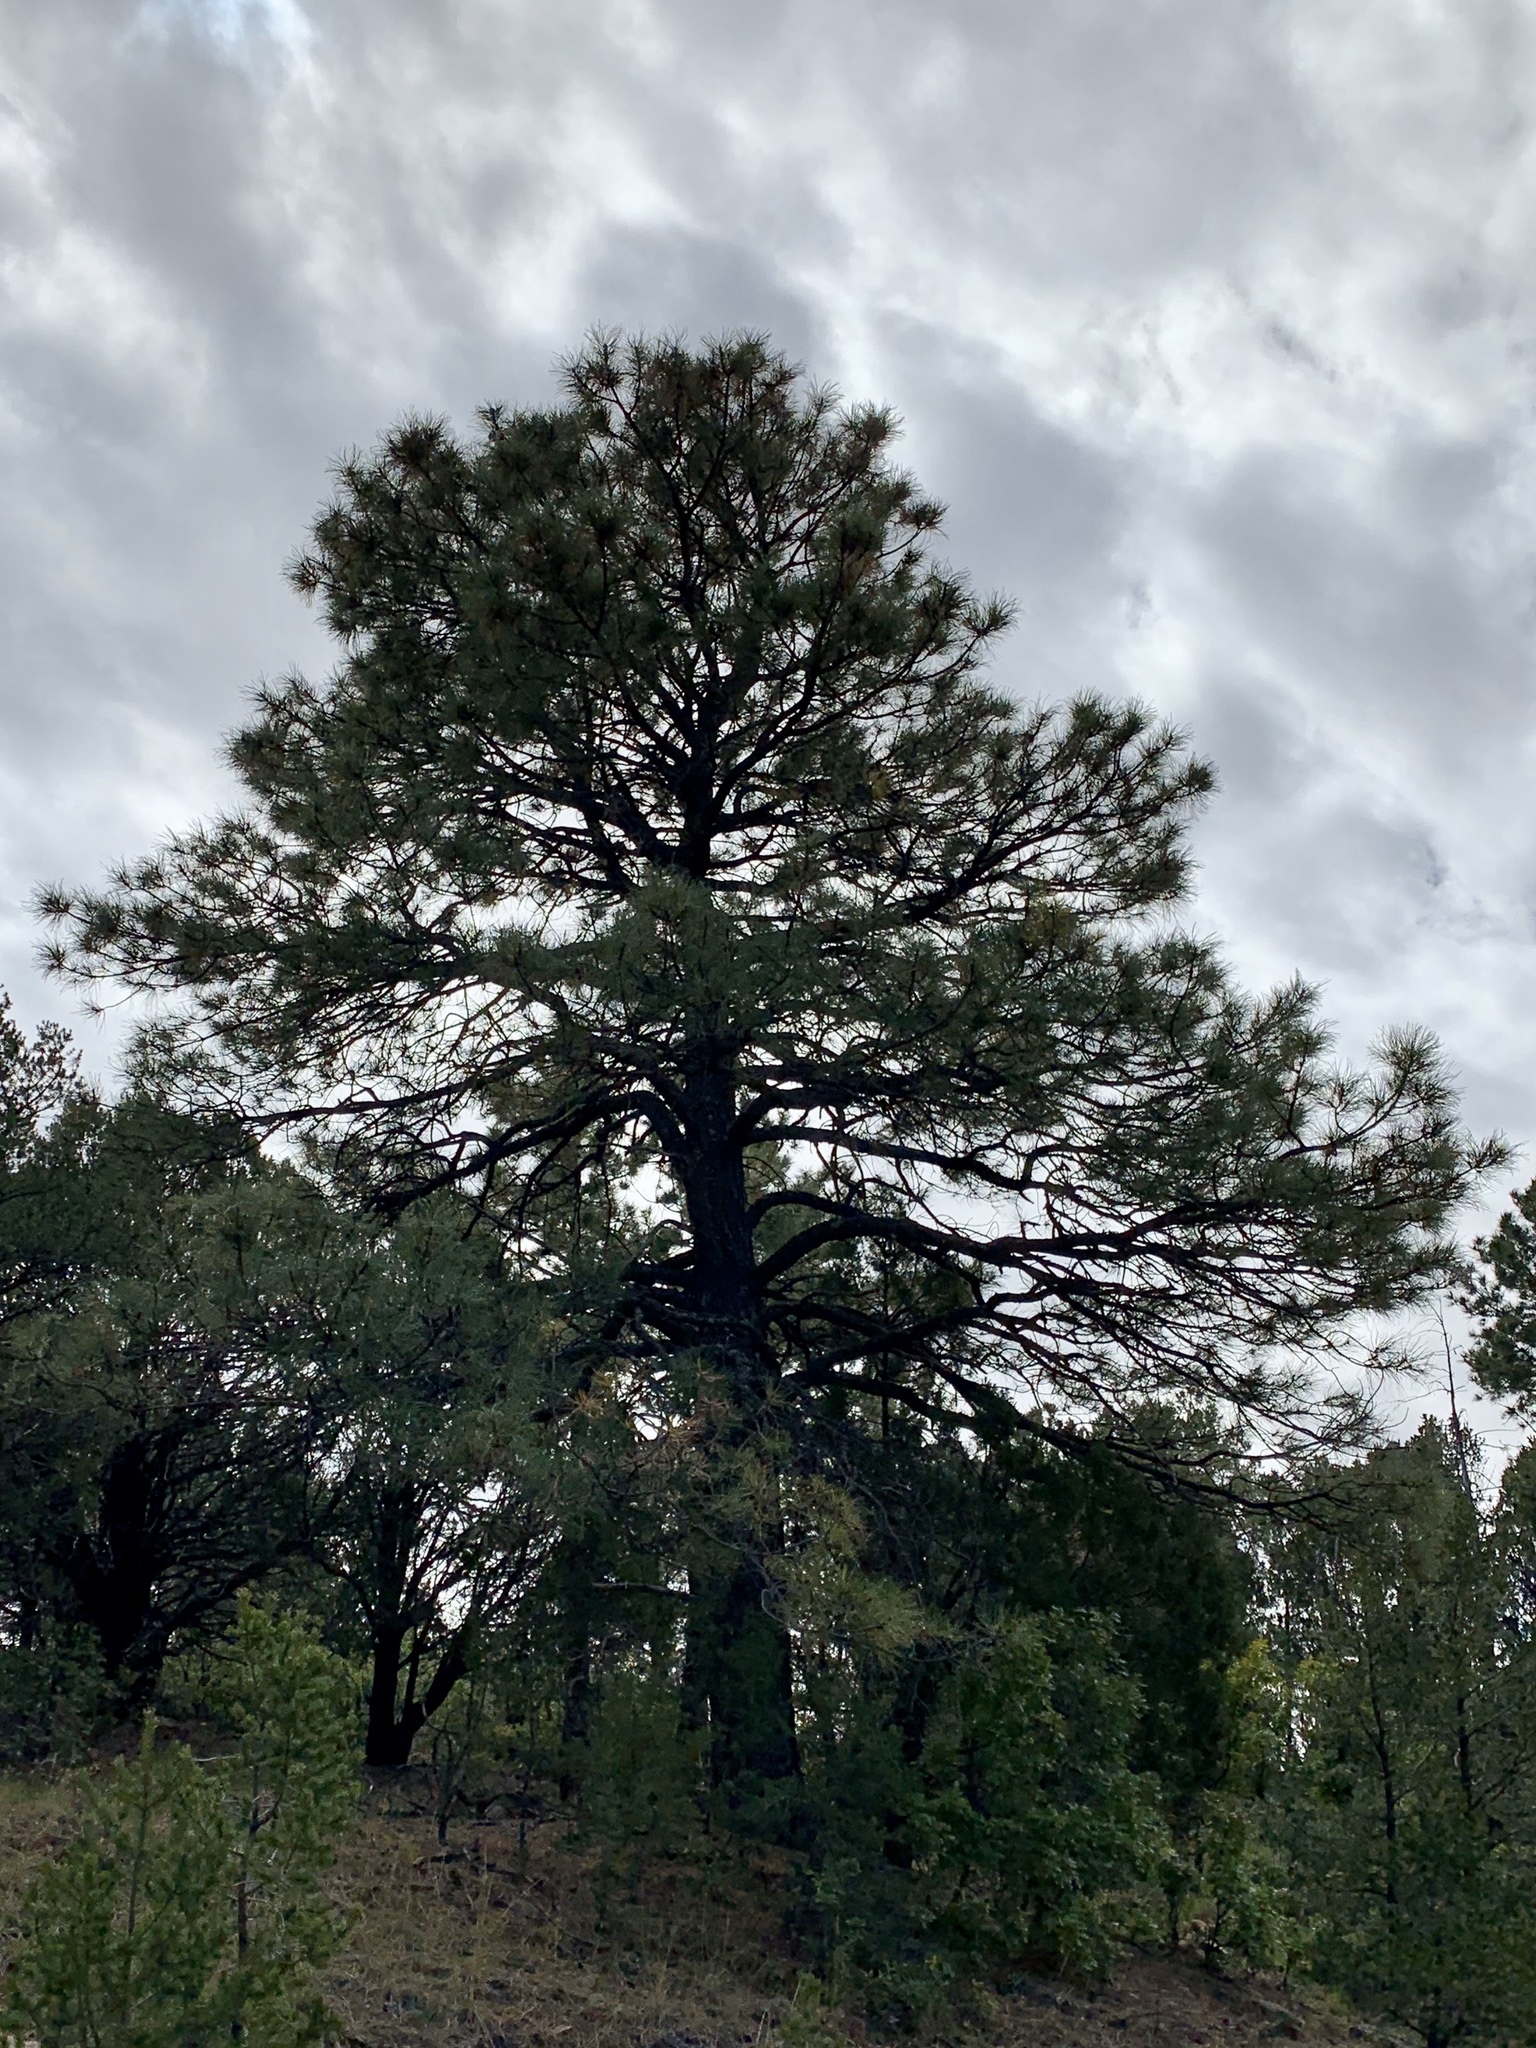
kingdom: Plantae
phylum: Tracheophyta
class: Pinopsida
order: Pinales
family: Pinaceae
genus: Pinus
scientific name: Pinus ponderosa
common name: Western yellow-pine
